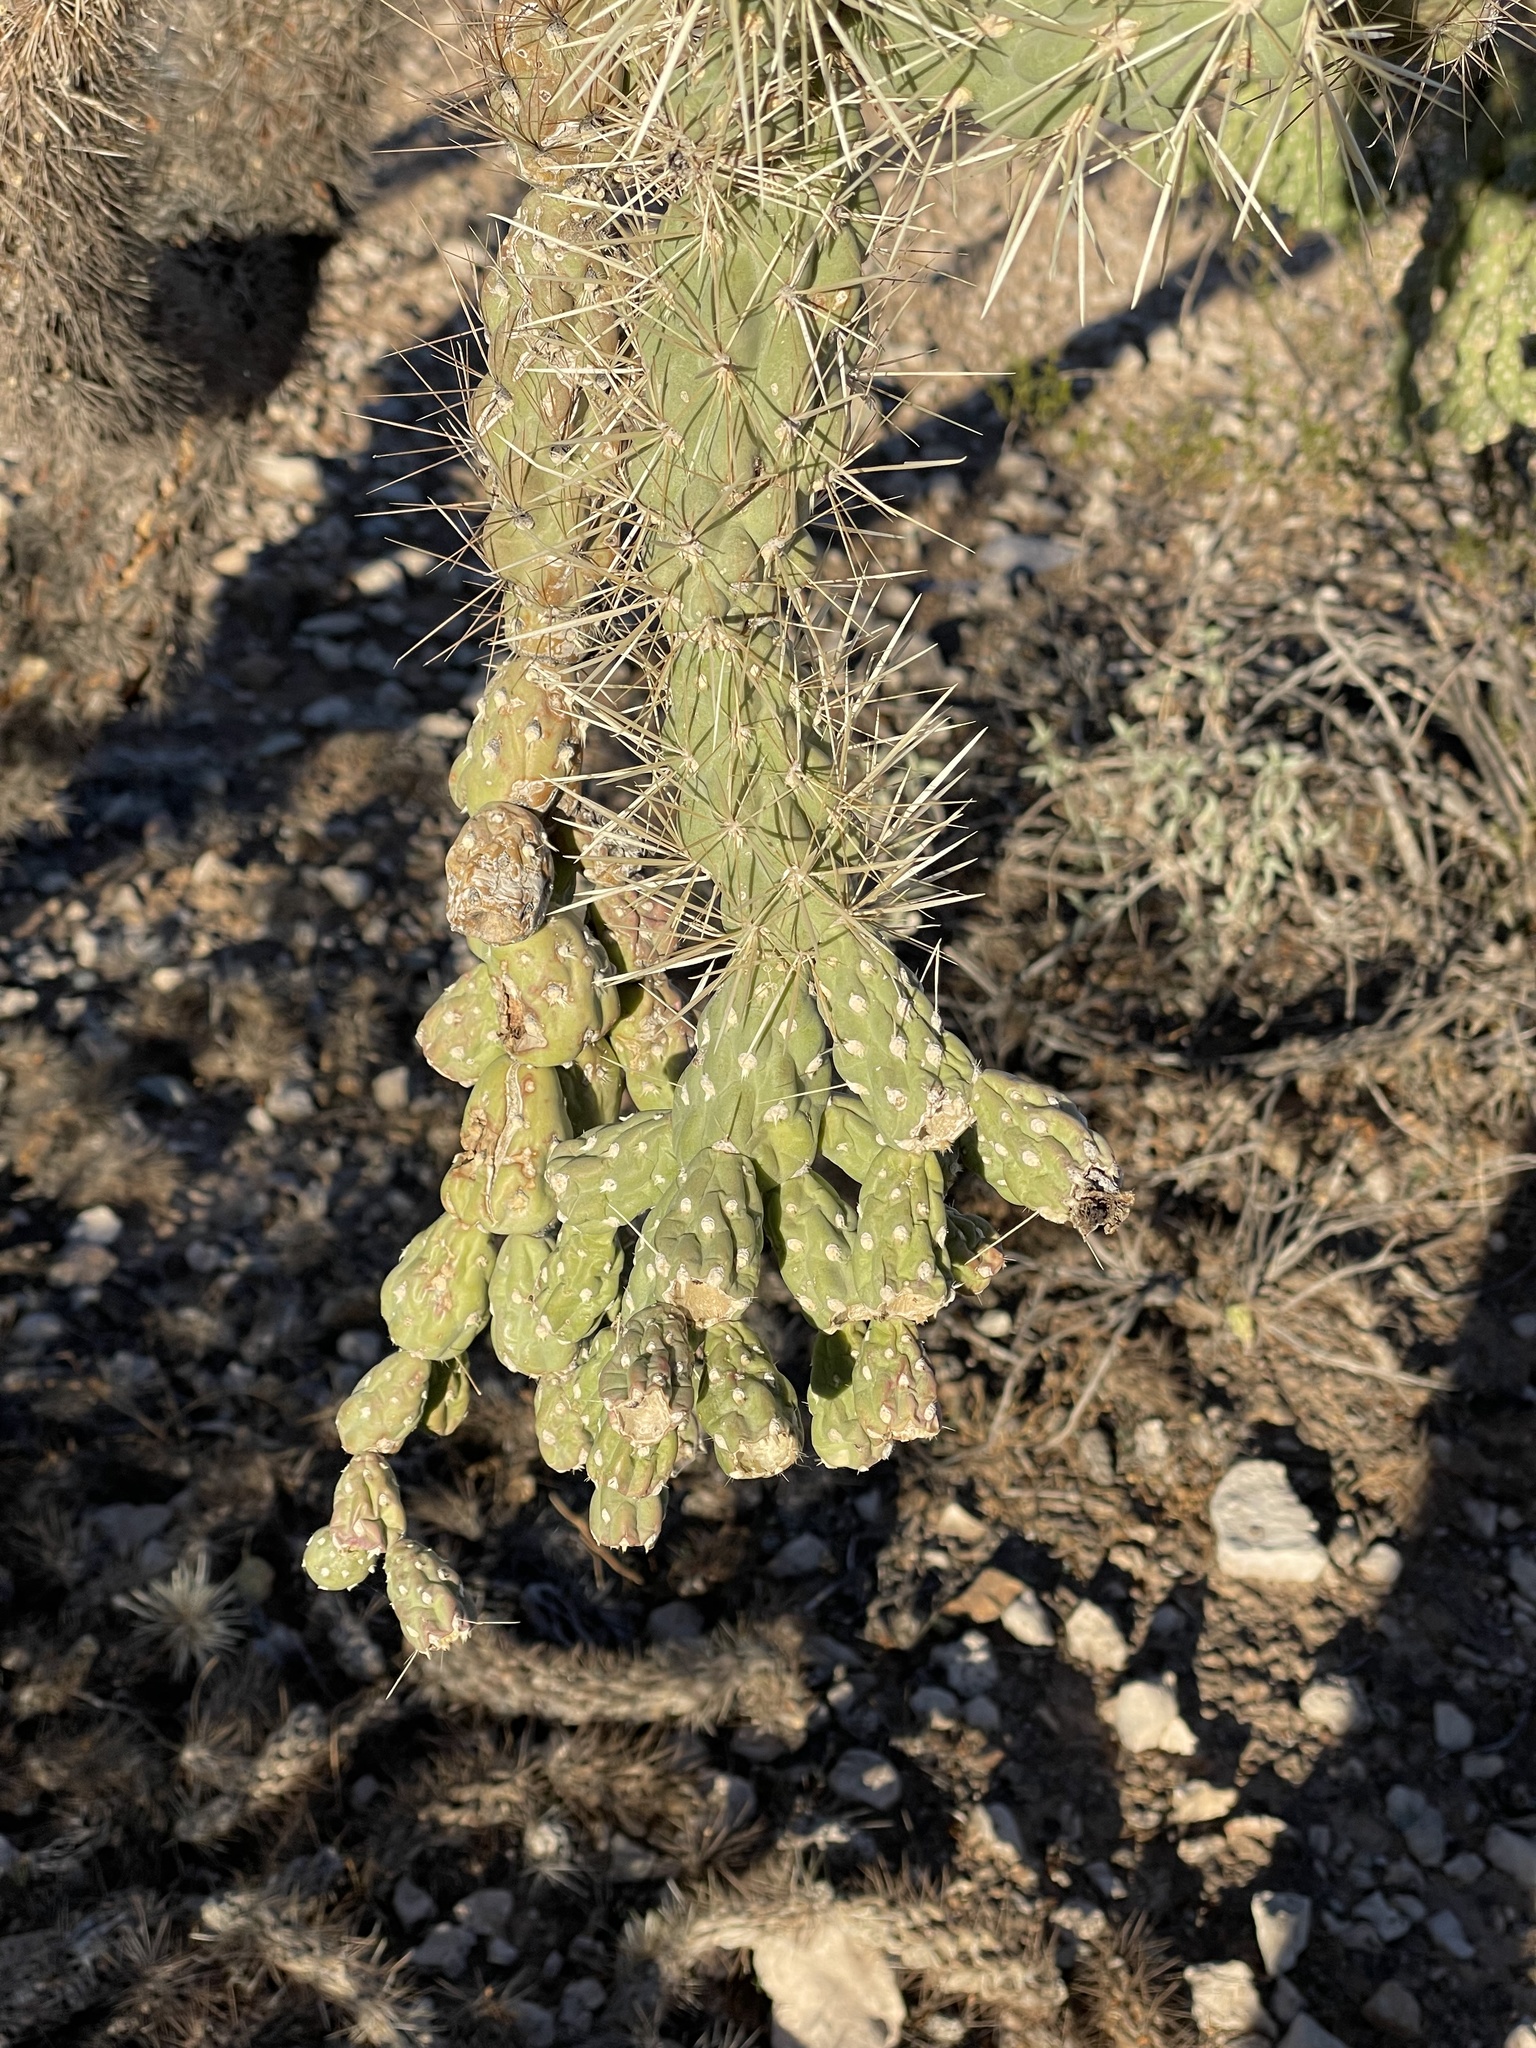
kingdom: Plantae
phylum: Tracheophyta
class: Magnoliopsida
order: Caryophyllales
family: Cactaceae
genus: Cylindropuntia
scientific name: Cylindropuntia fulgida
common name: Jumping cholla
